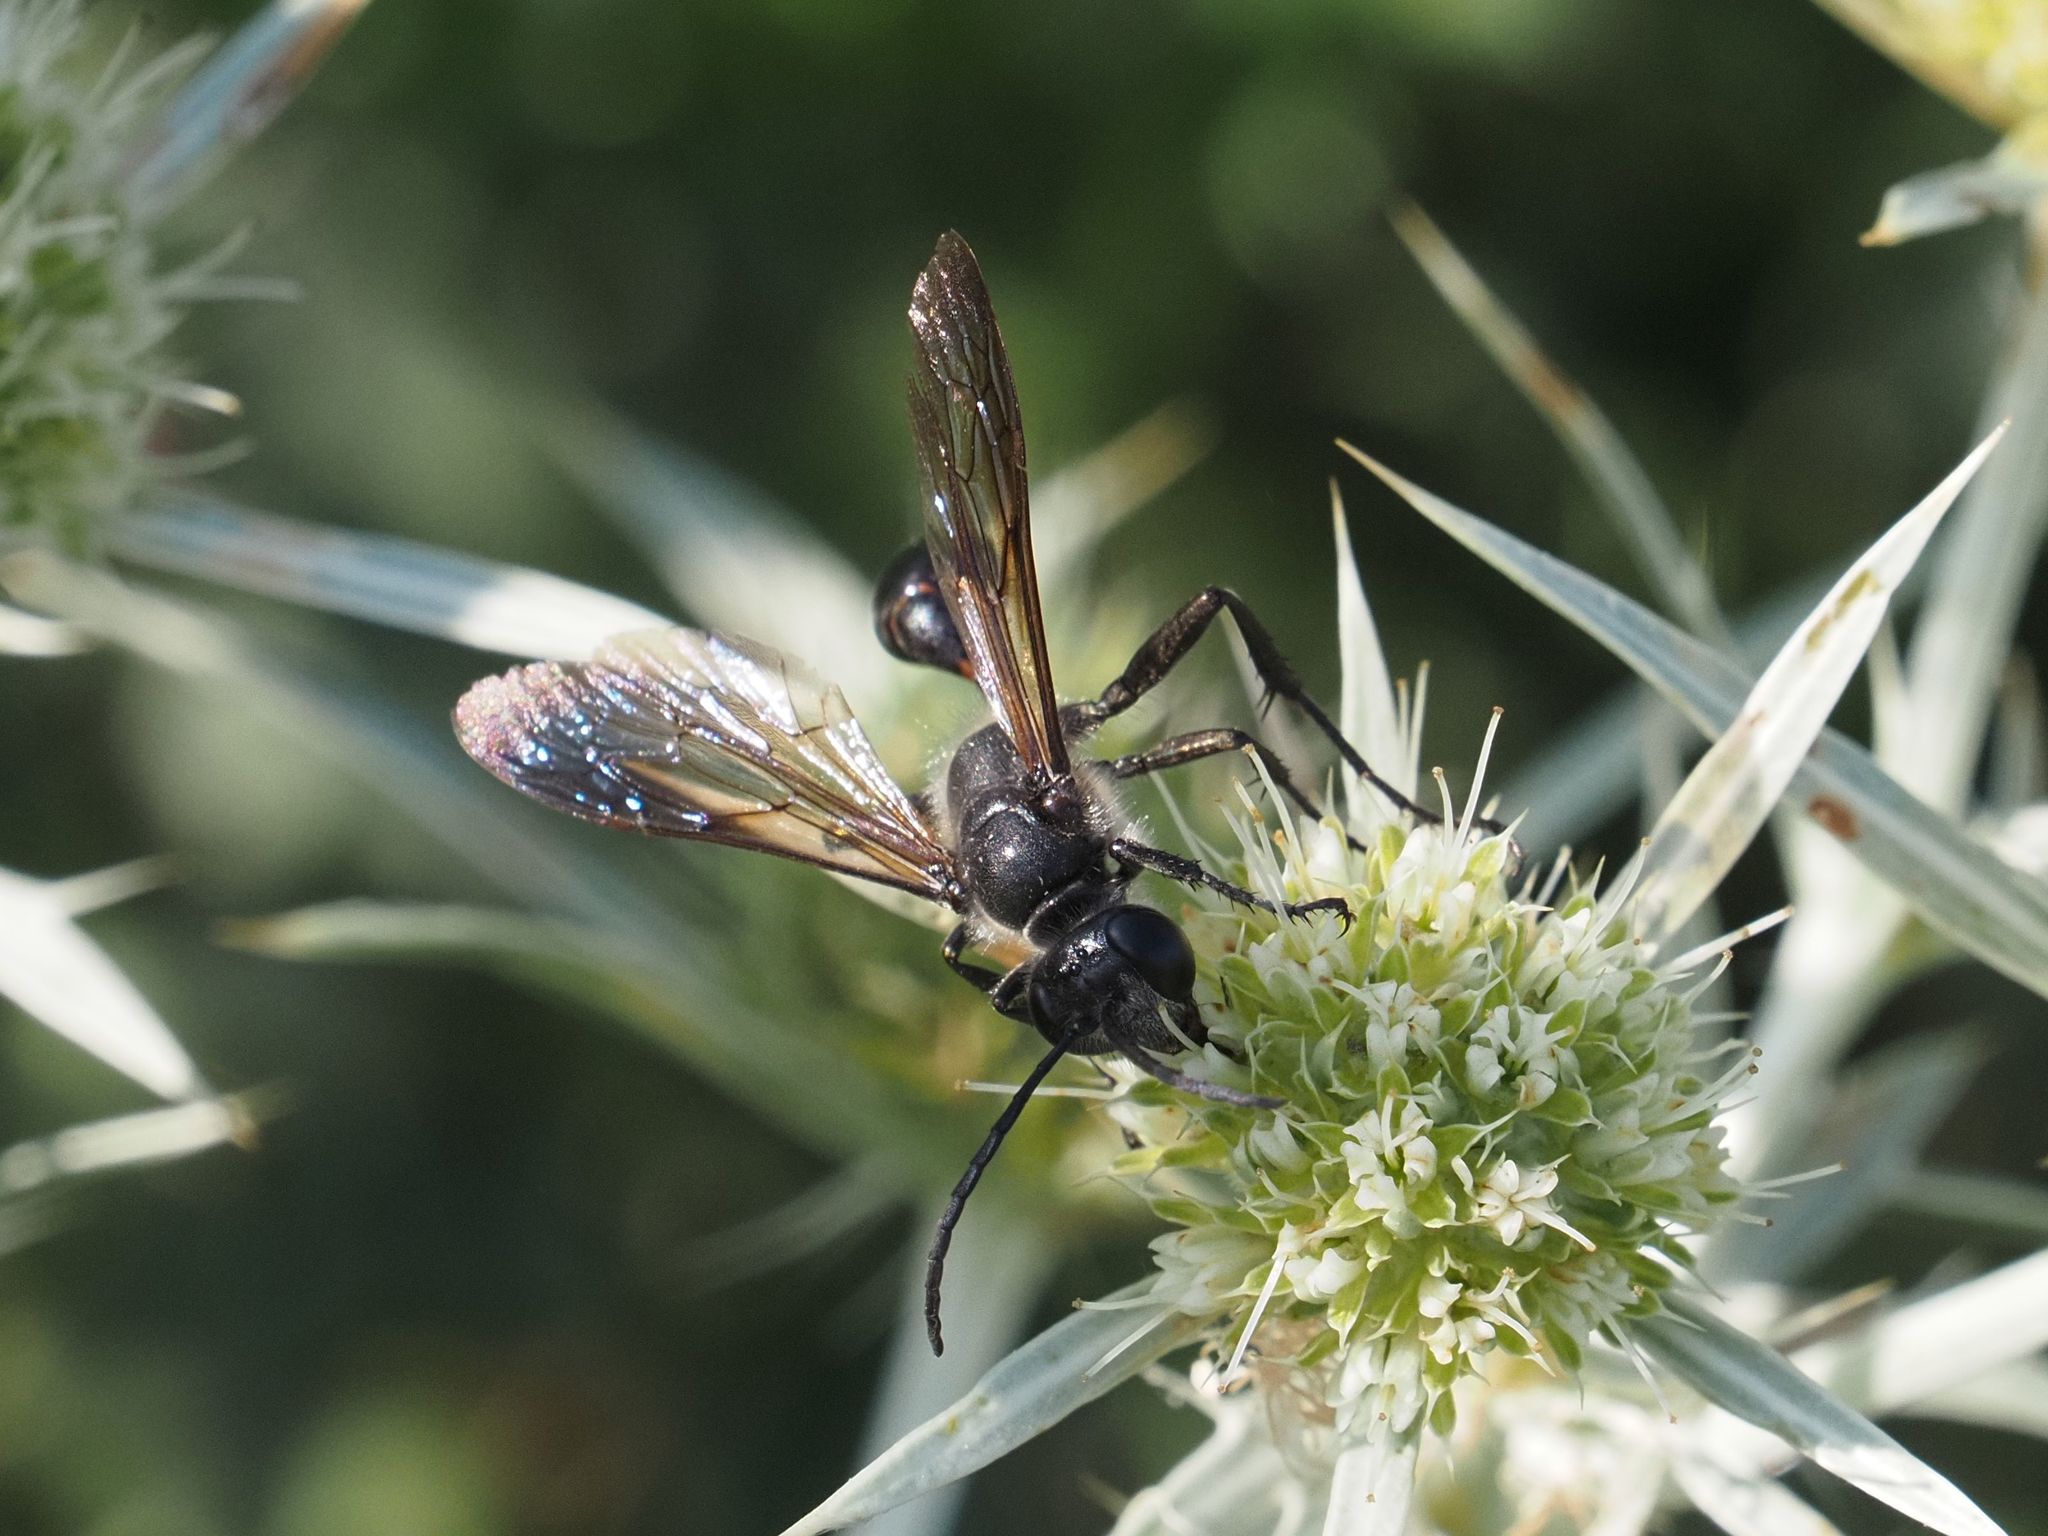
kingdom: Animalia
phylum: Arthropoda
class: Insecta
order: Hymenoptera
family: Sphecidae
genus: Isodontia
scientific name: Isodontia mexicana
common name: Mud dauber
